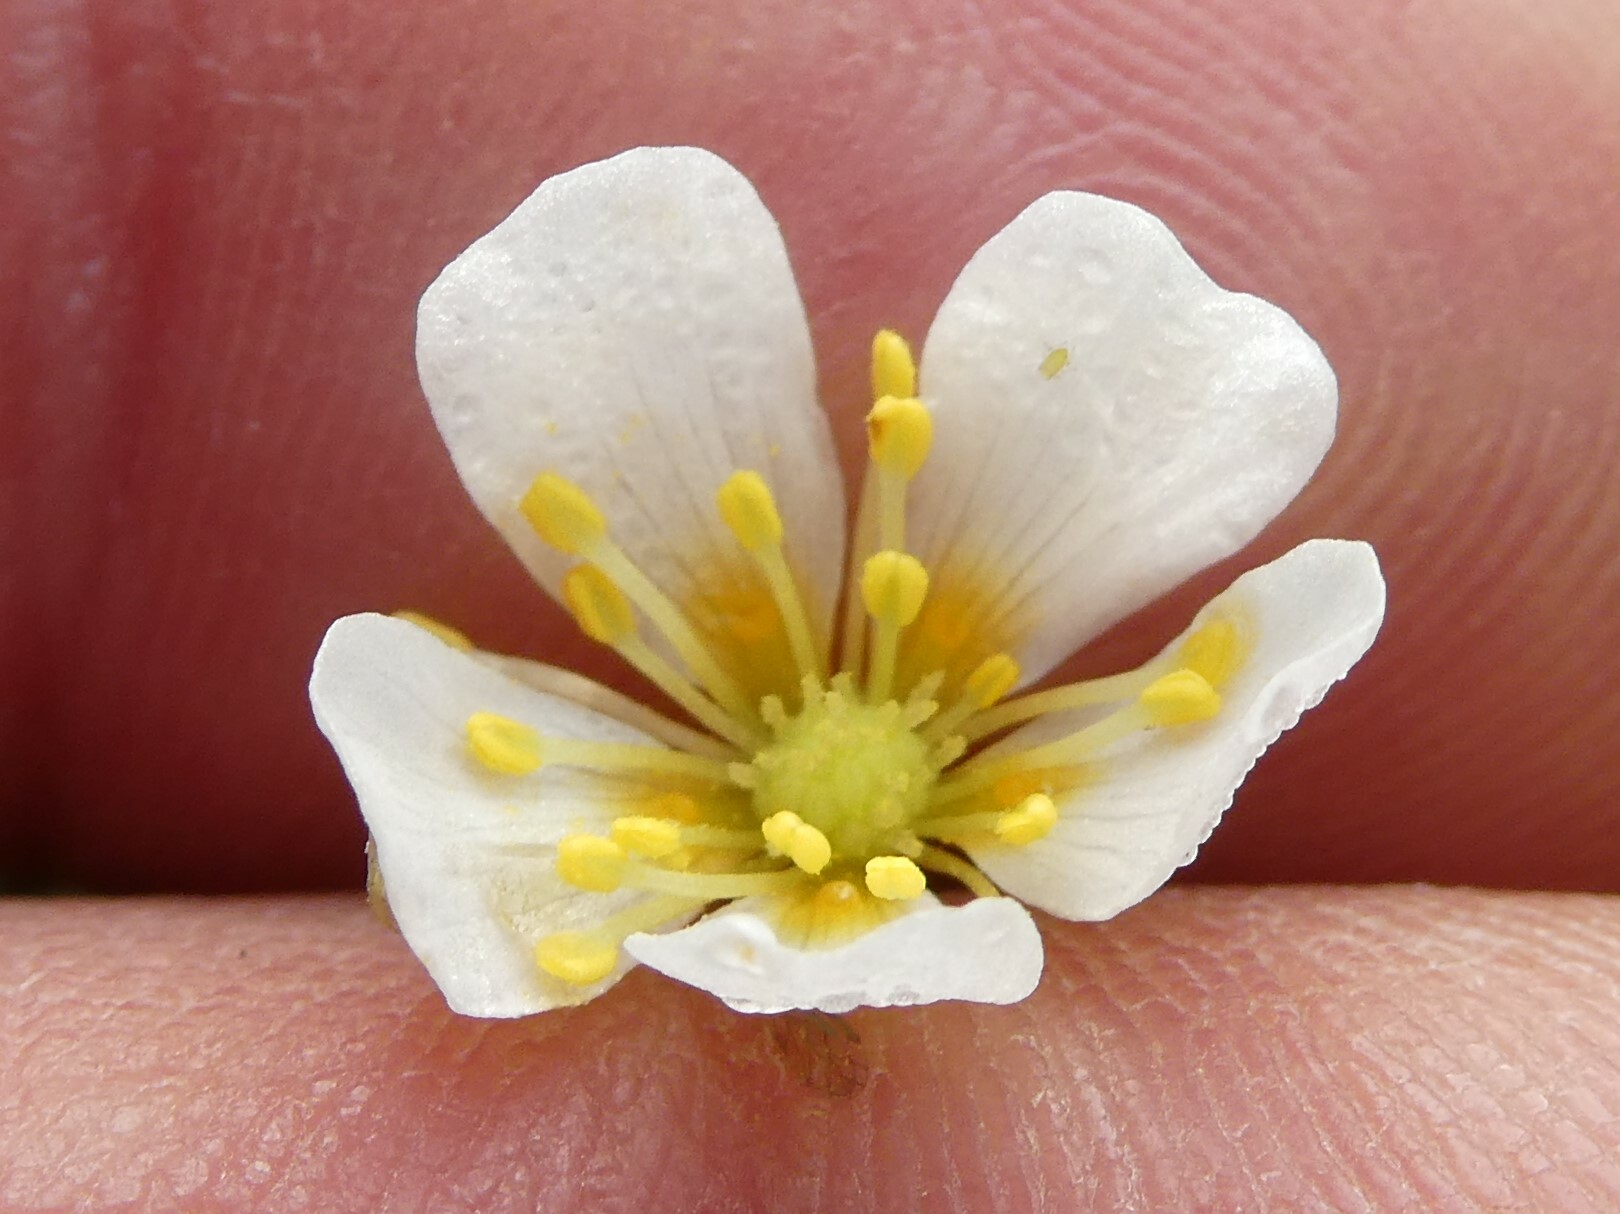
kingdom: Plantae
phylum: Tracheophyta
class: Magnoliopsida
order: Ranunculales
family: Ranunculaceae
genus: Ranunculus
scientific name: Ranunculus aquatilis
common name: Common water-crowfoot
